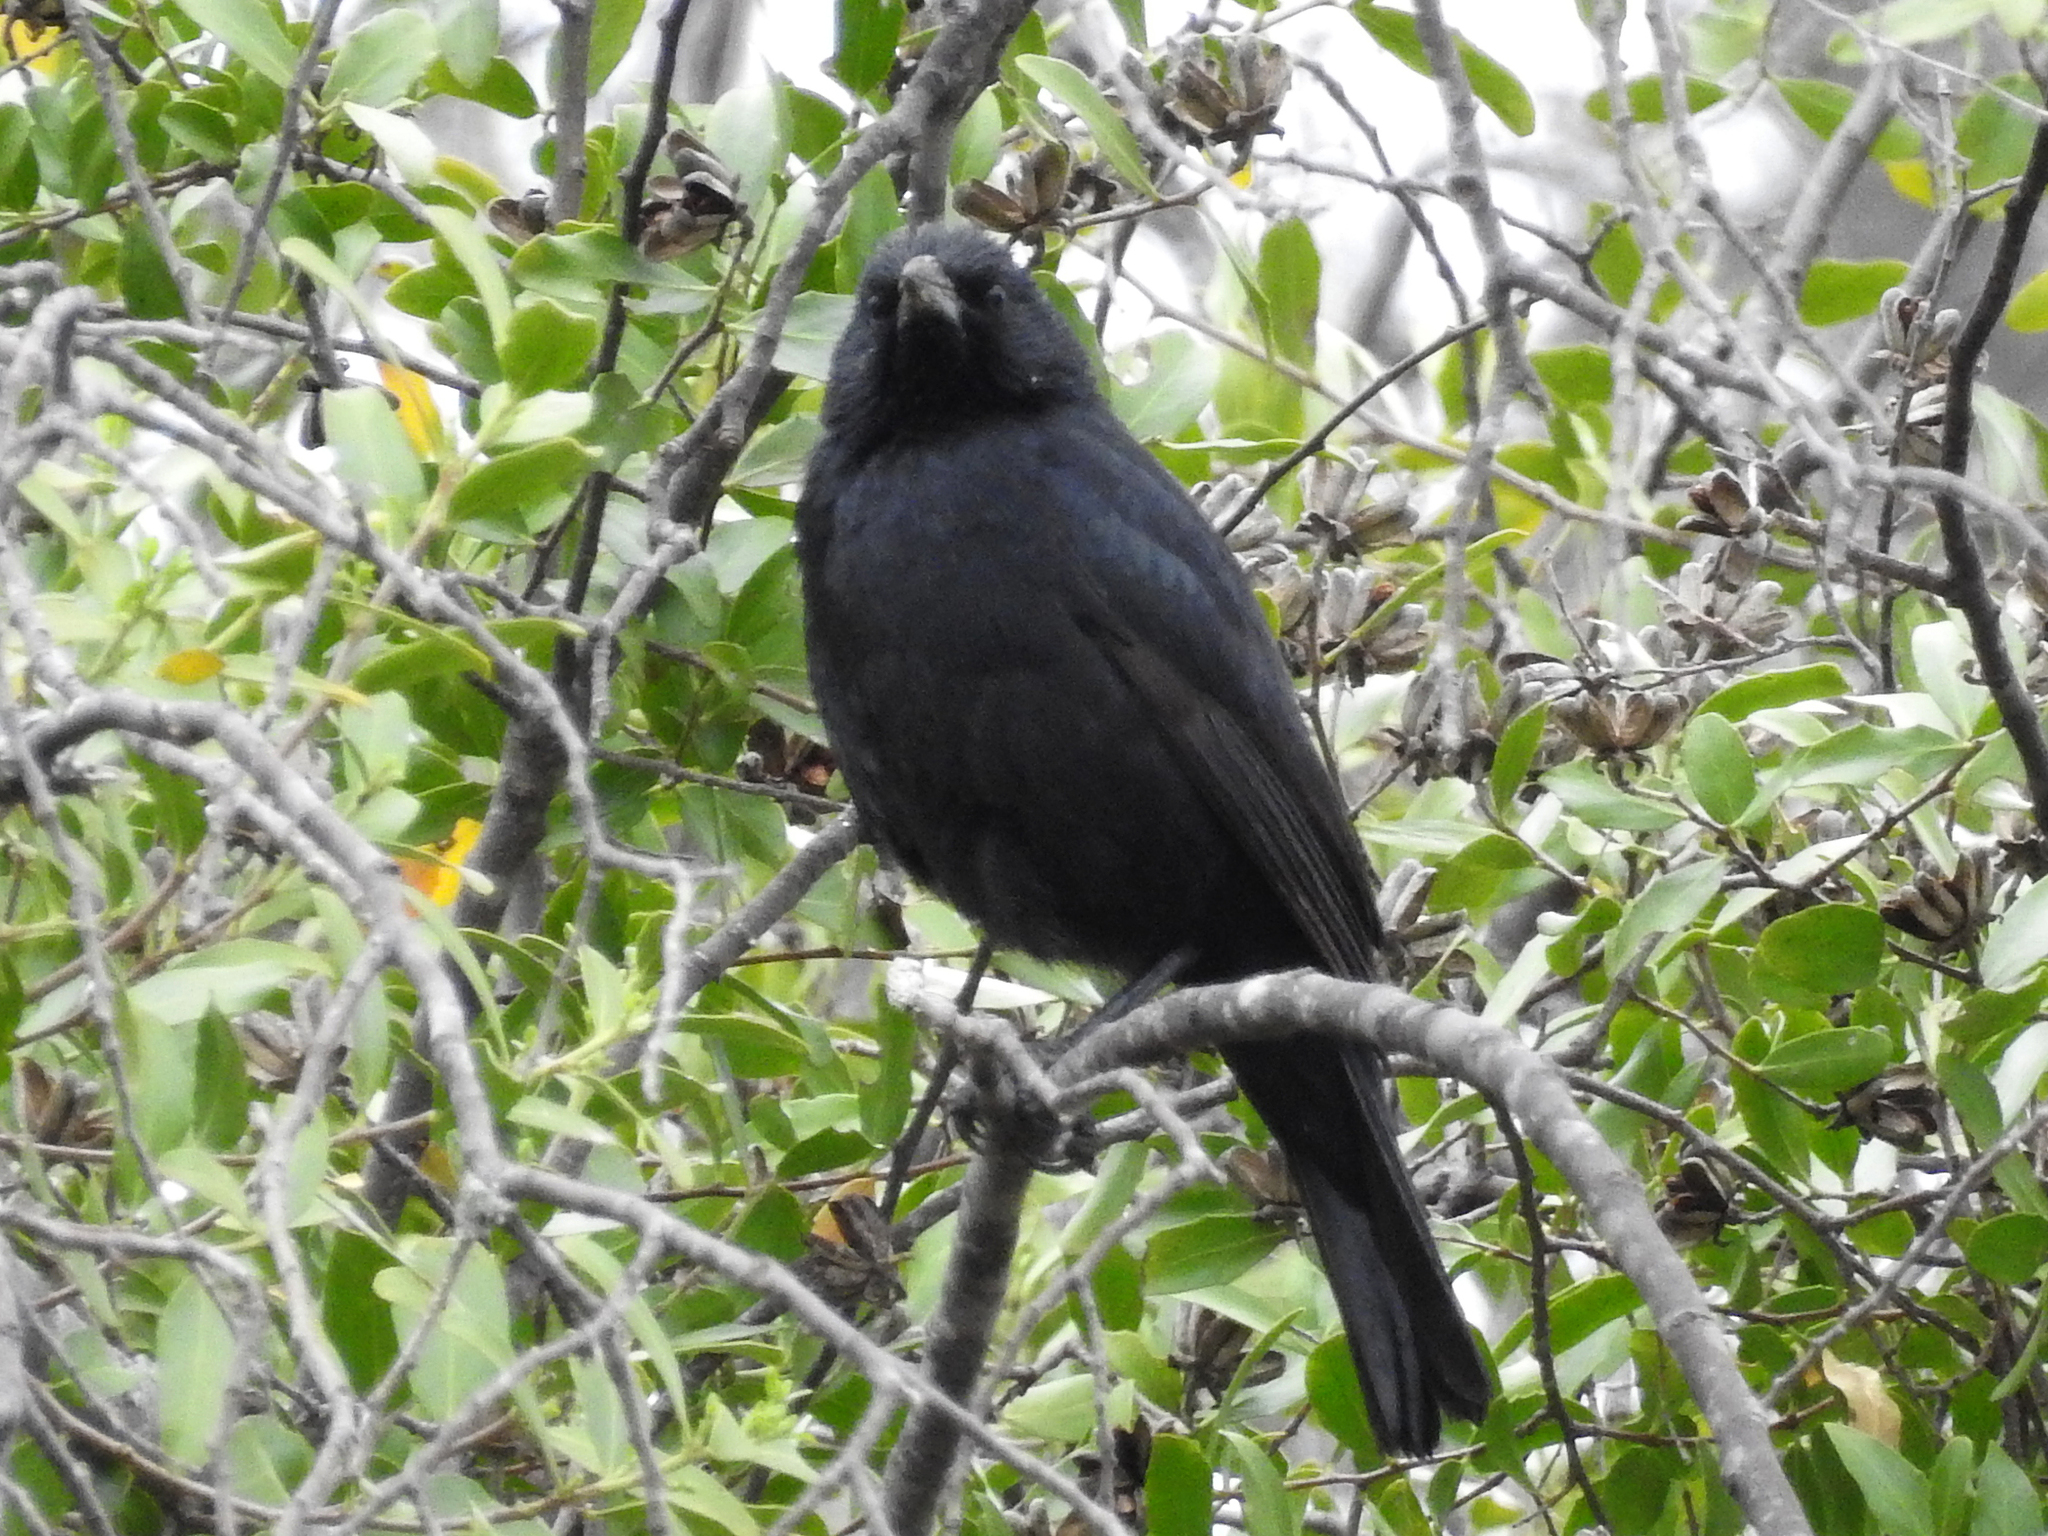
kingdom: Animalia
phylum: Chordata
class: Aves
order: Passeriformes
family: Icteridae
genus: Curaeus
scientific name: Curaeus curaeus
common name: Austral blackbird
